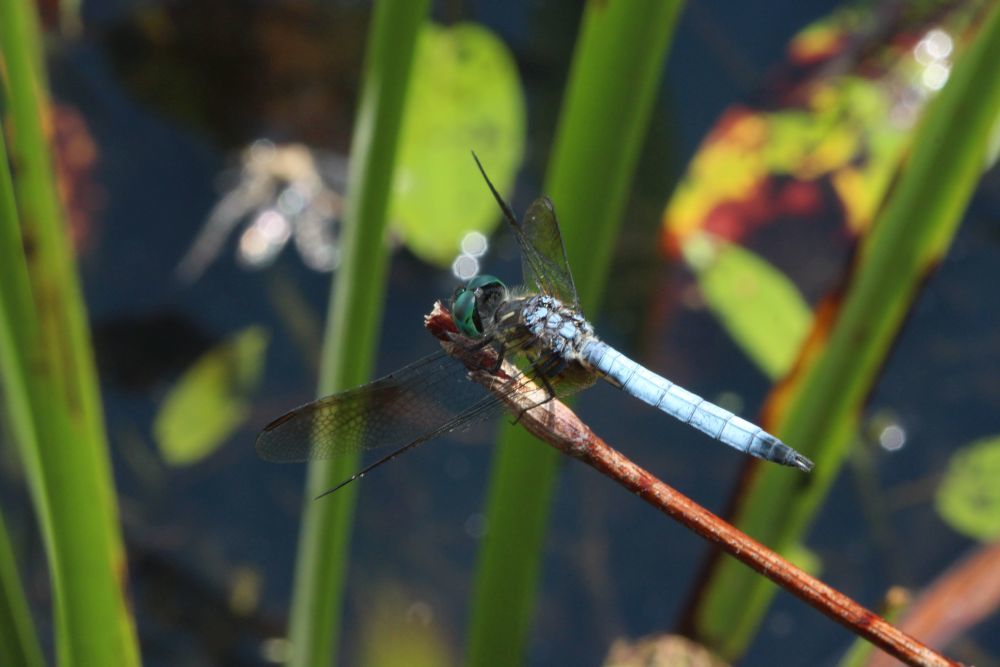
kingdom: Animalia
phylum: Arthropoda
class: Insecta
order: Odonata
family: Libellulidae
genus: Pachydiplax
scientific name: Pachydiplax longipennis
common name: Blue dasher
